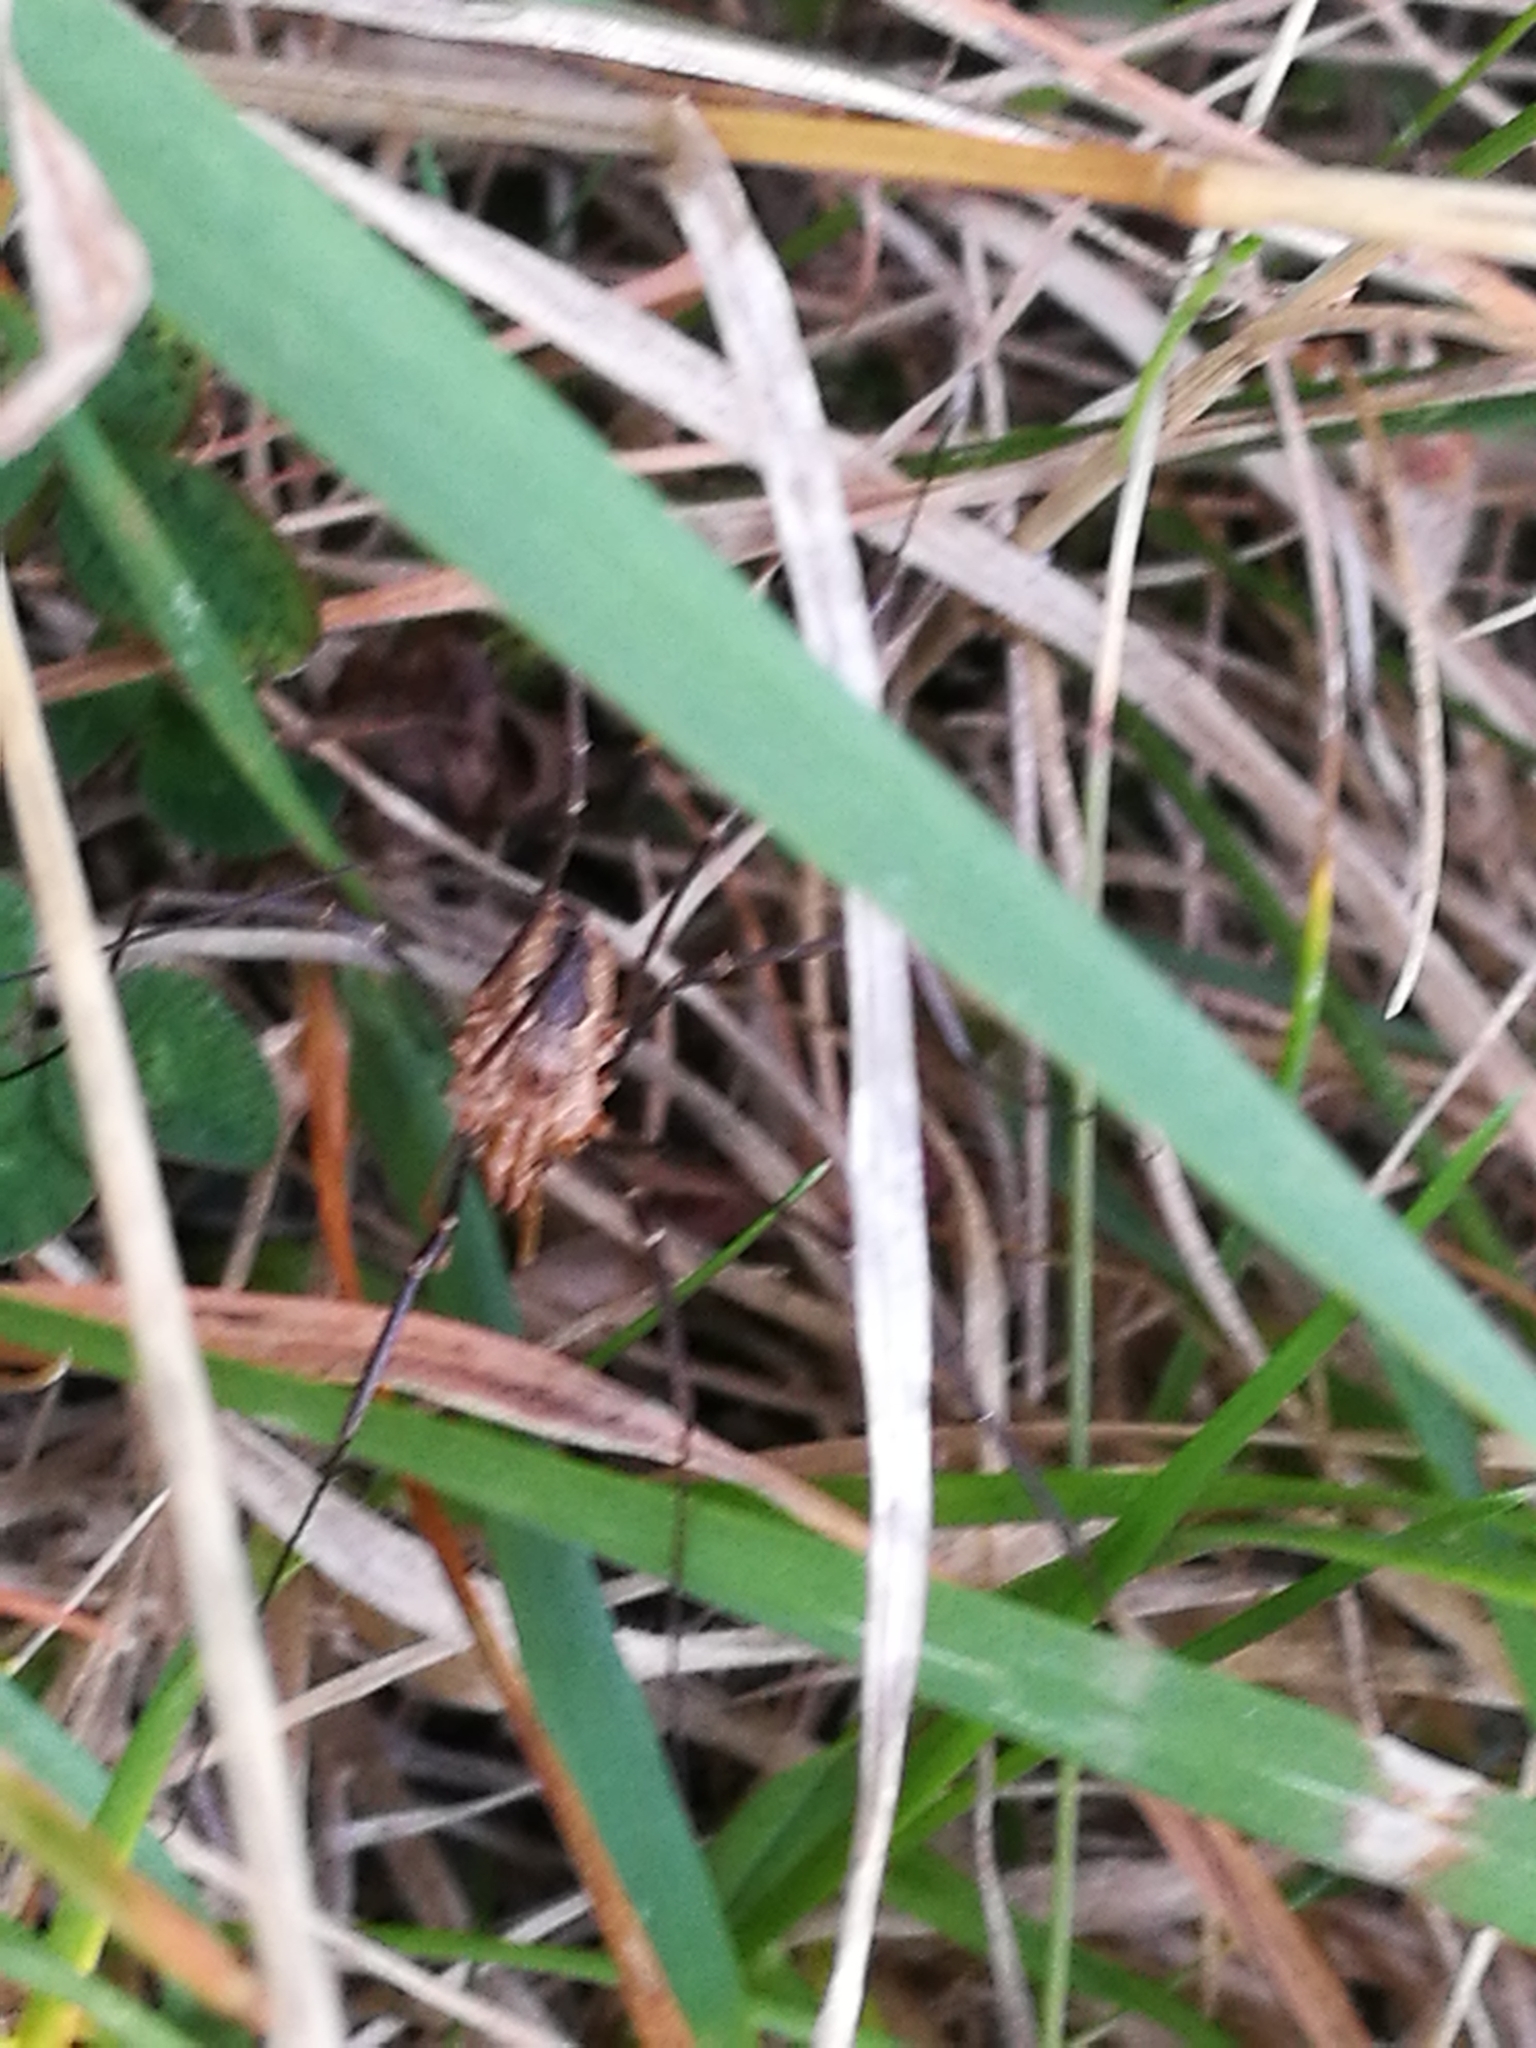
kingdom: Animalia
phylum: Arthropoda
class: Arachnida
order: Opiliones
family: Phalangiidae
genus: Phalangium
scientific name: Phalangium opilio
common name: Daddy longleg
